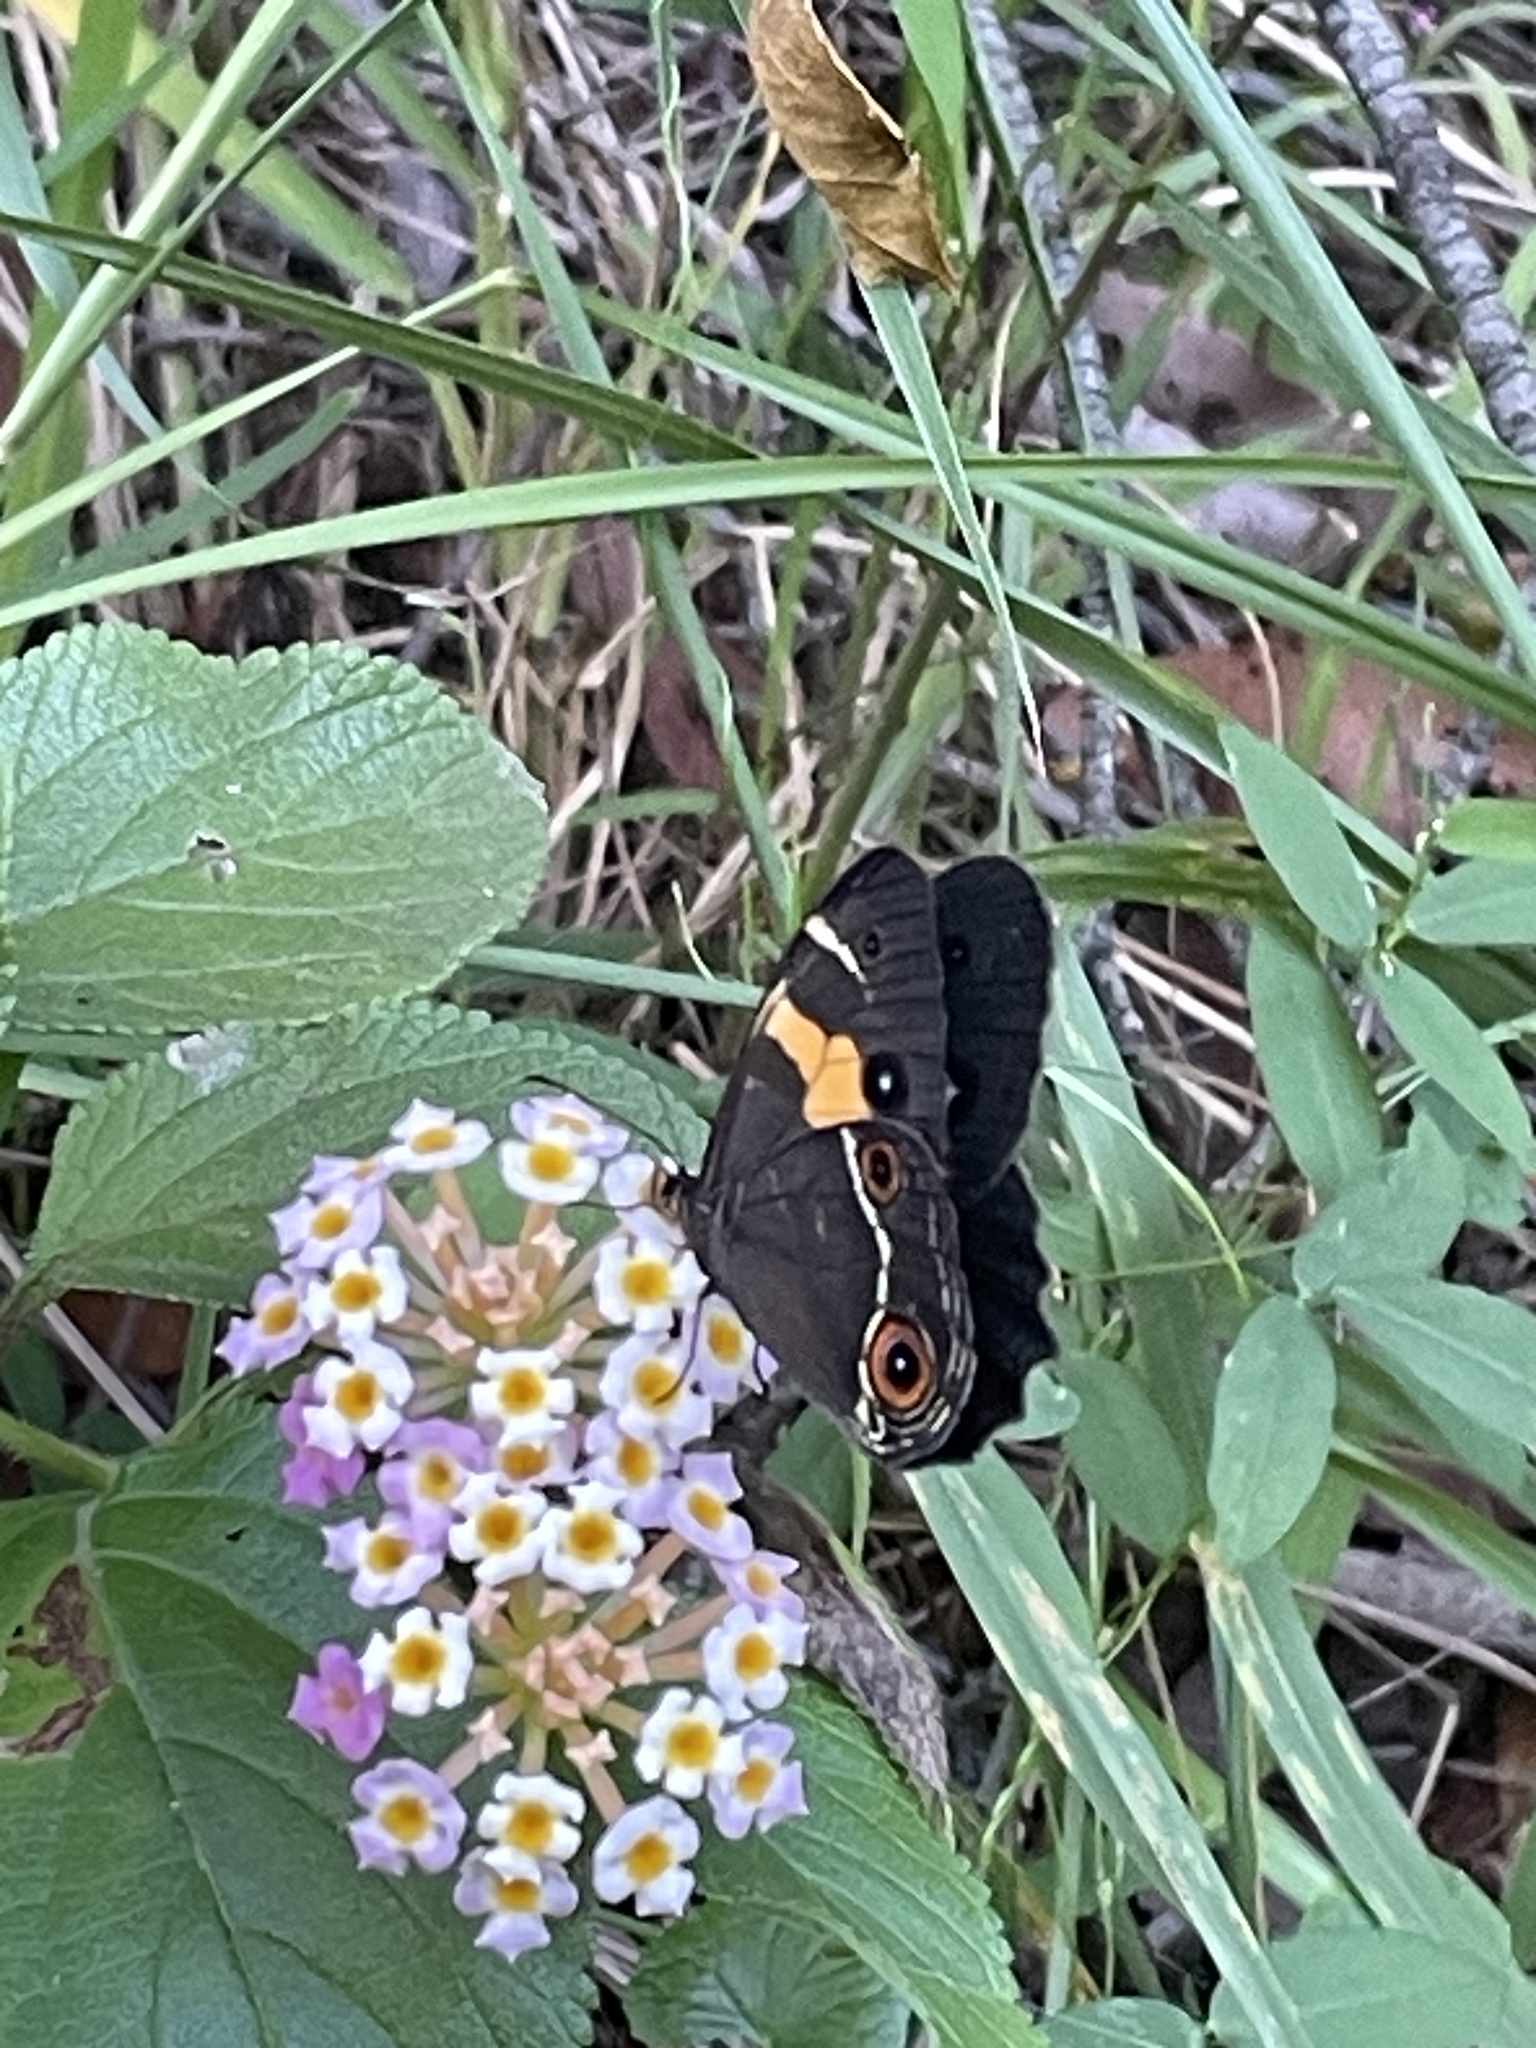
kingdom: Animalia
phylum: Arthropoda
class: Insecta
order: Lepidoptera
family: Nymphalidae
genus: Tisiphone
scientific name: Tisiphone abeona
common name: Swordgrass brown
